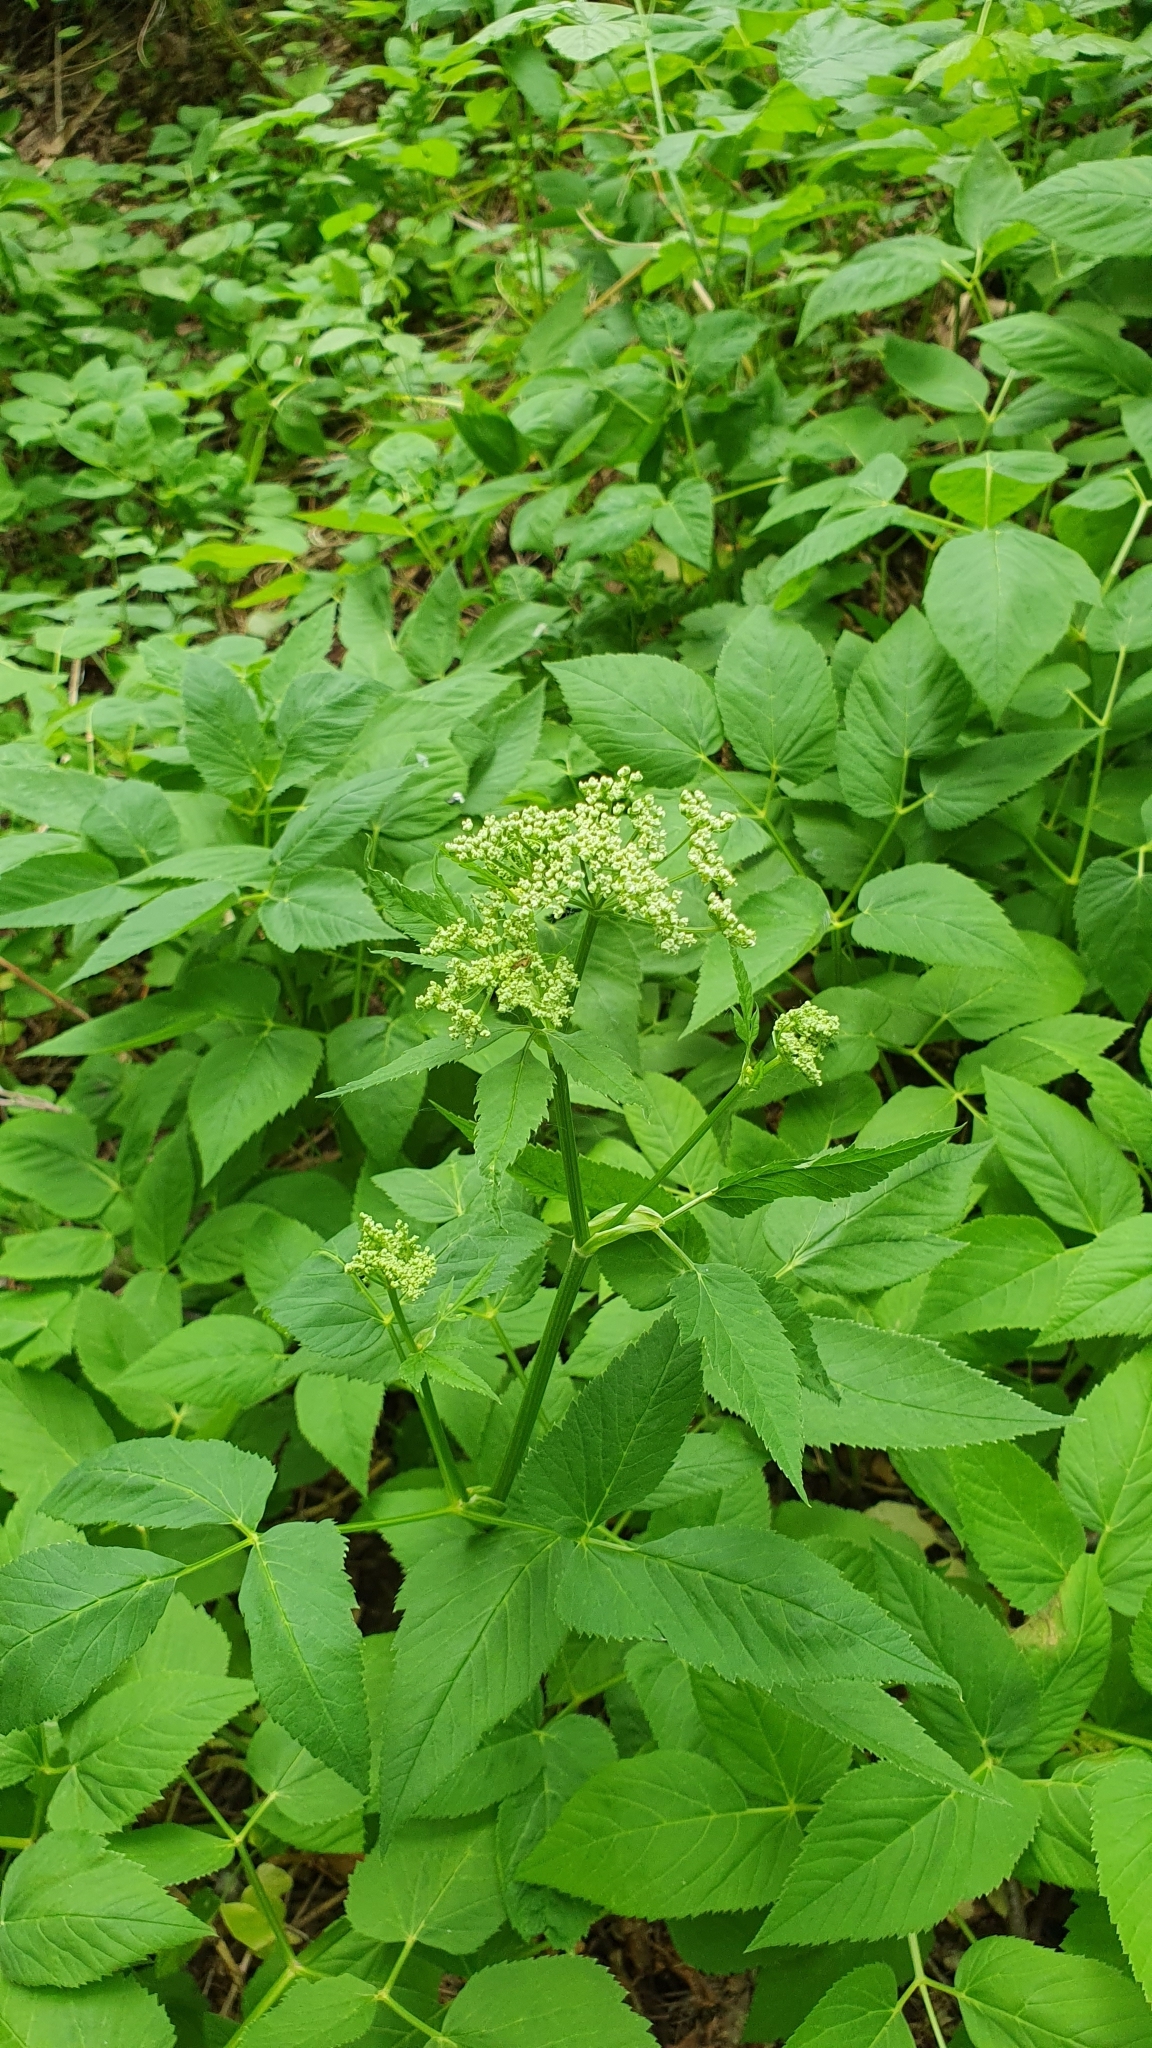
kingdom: Plantae
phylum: Tracheophyta
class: Magnoliopsida
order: Apiales
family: Apiaceae
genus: Aegopodium
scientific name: Aegopodium podagraria
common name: Ground-elder
